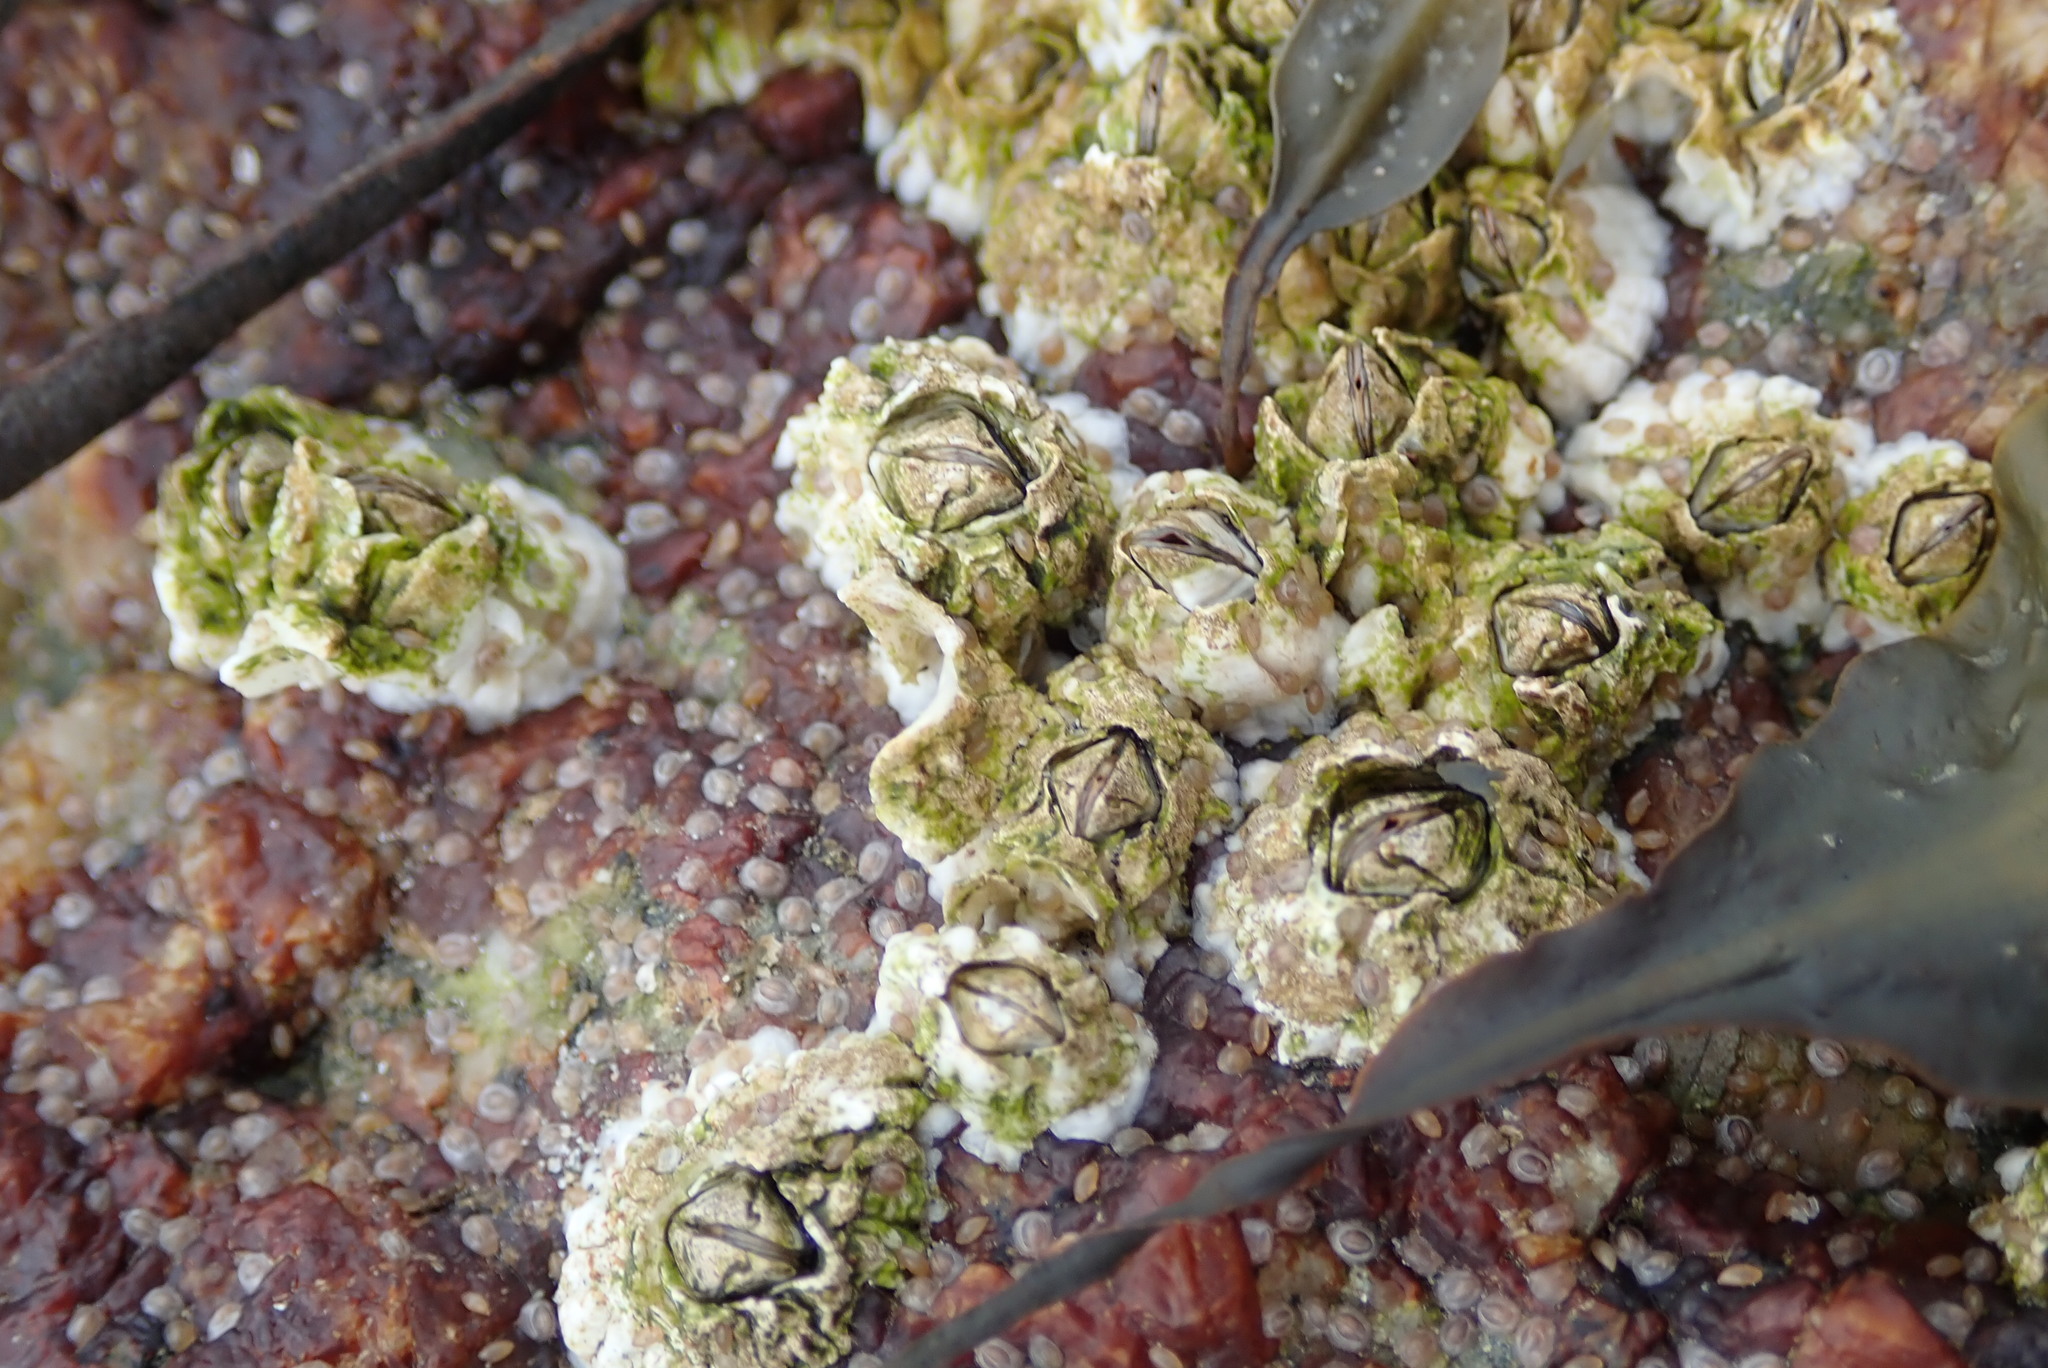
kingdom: Animalia
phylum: Arthropoda
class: Maxillopoda
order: Sessilia
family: Archaeobalanidae
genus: Semibalanus
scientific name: Semibalanus balanoides
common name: Acorn barnacle
